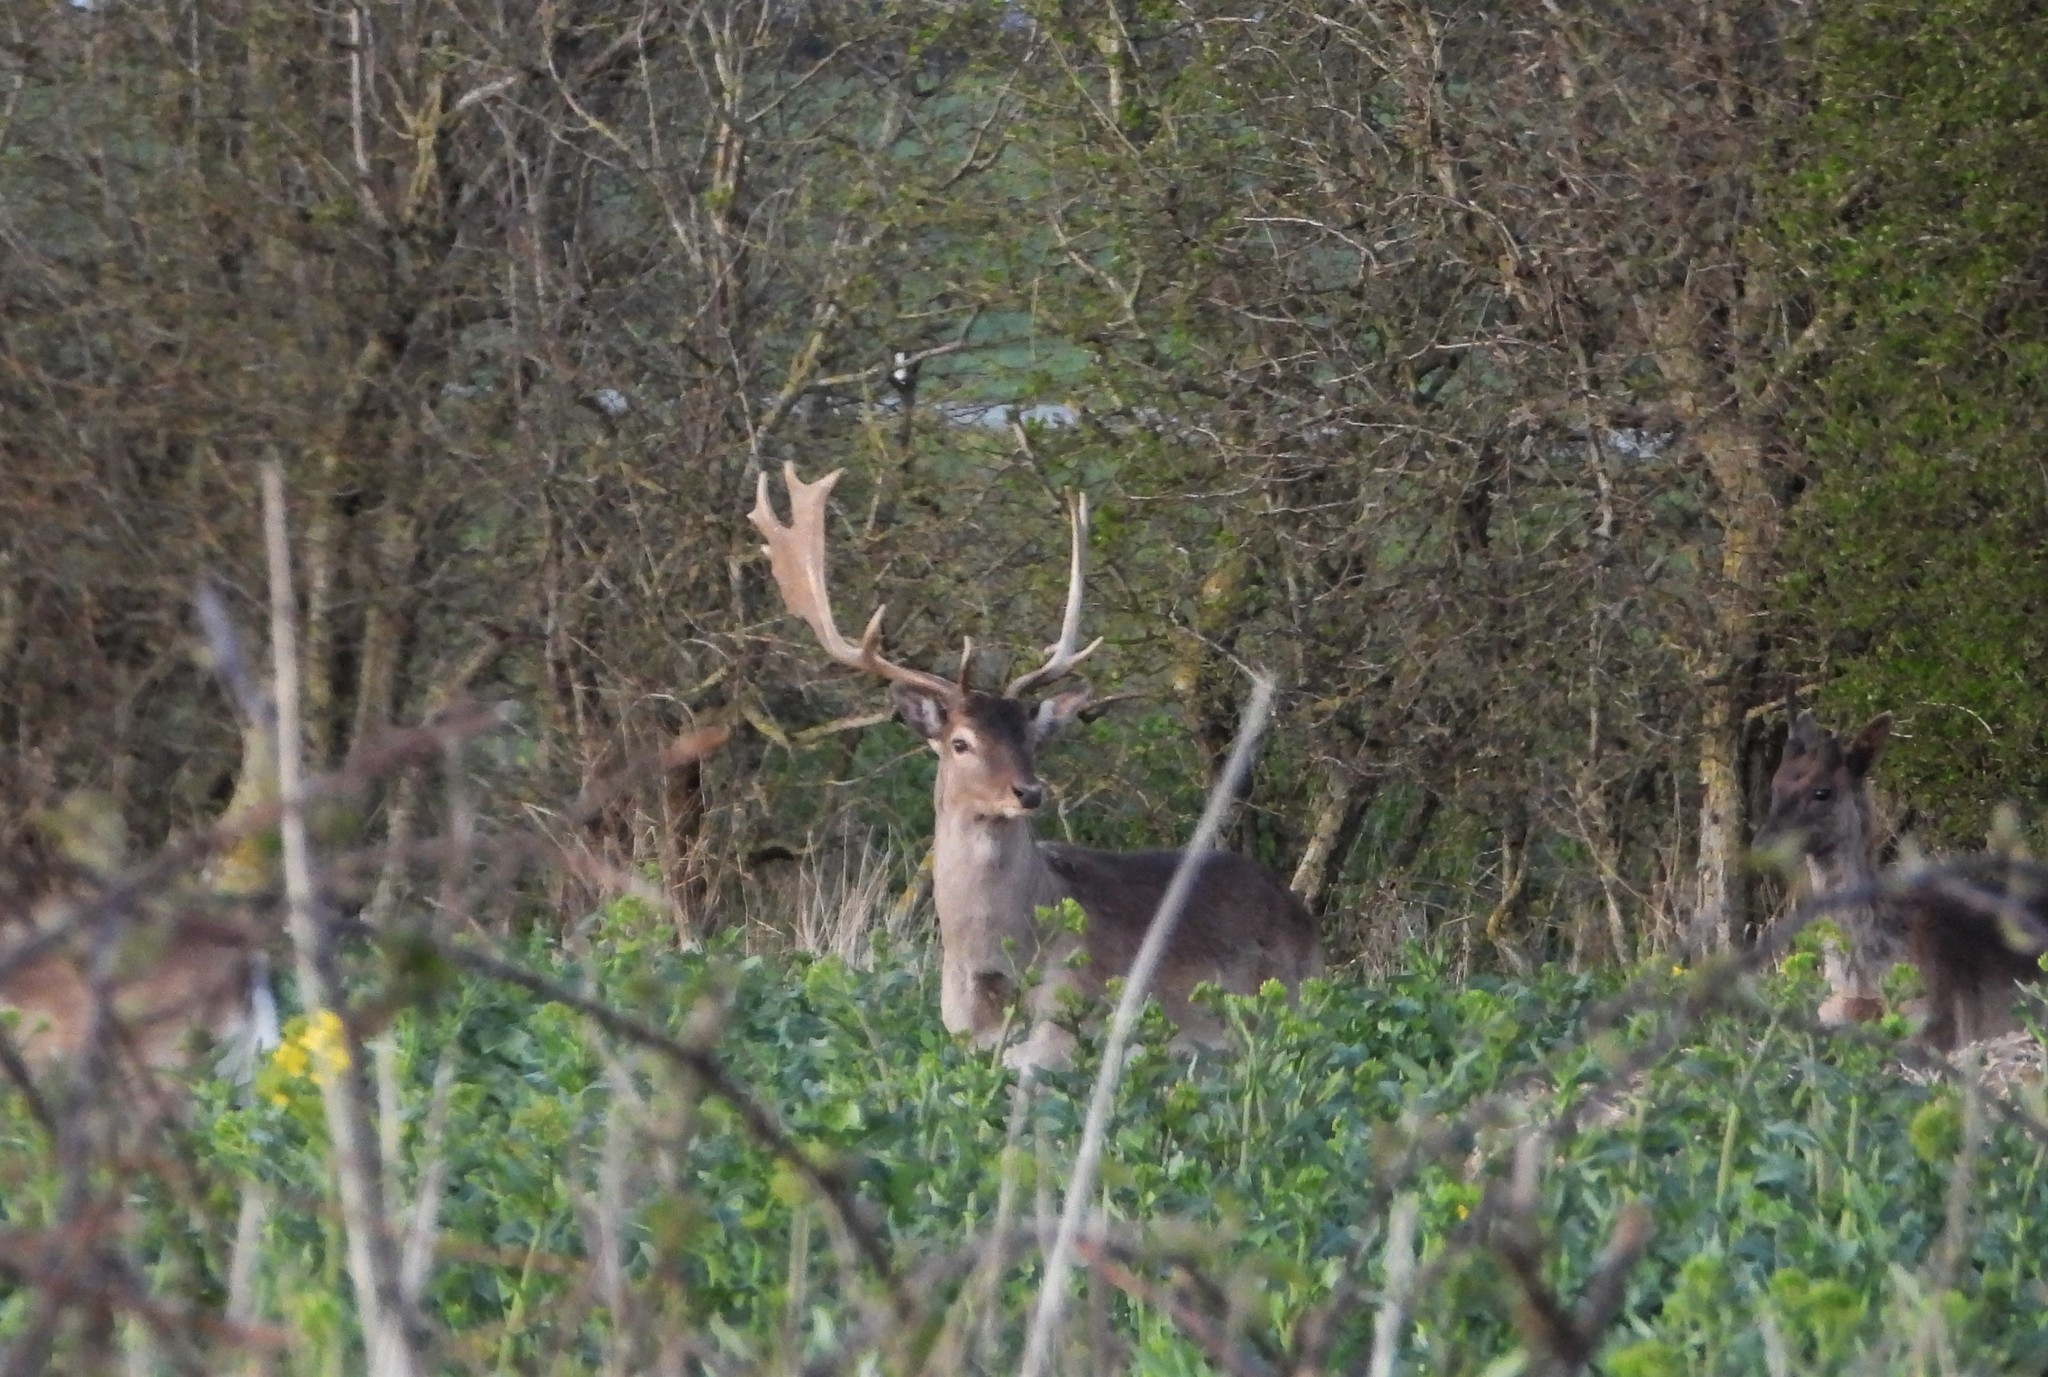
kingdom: Animalia
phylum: Chordata
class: Mammalia
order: Artiodactyla
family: Cervidae
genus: Dama
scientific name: Dama dama
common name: Fallow deer
